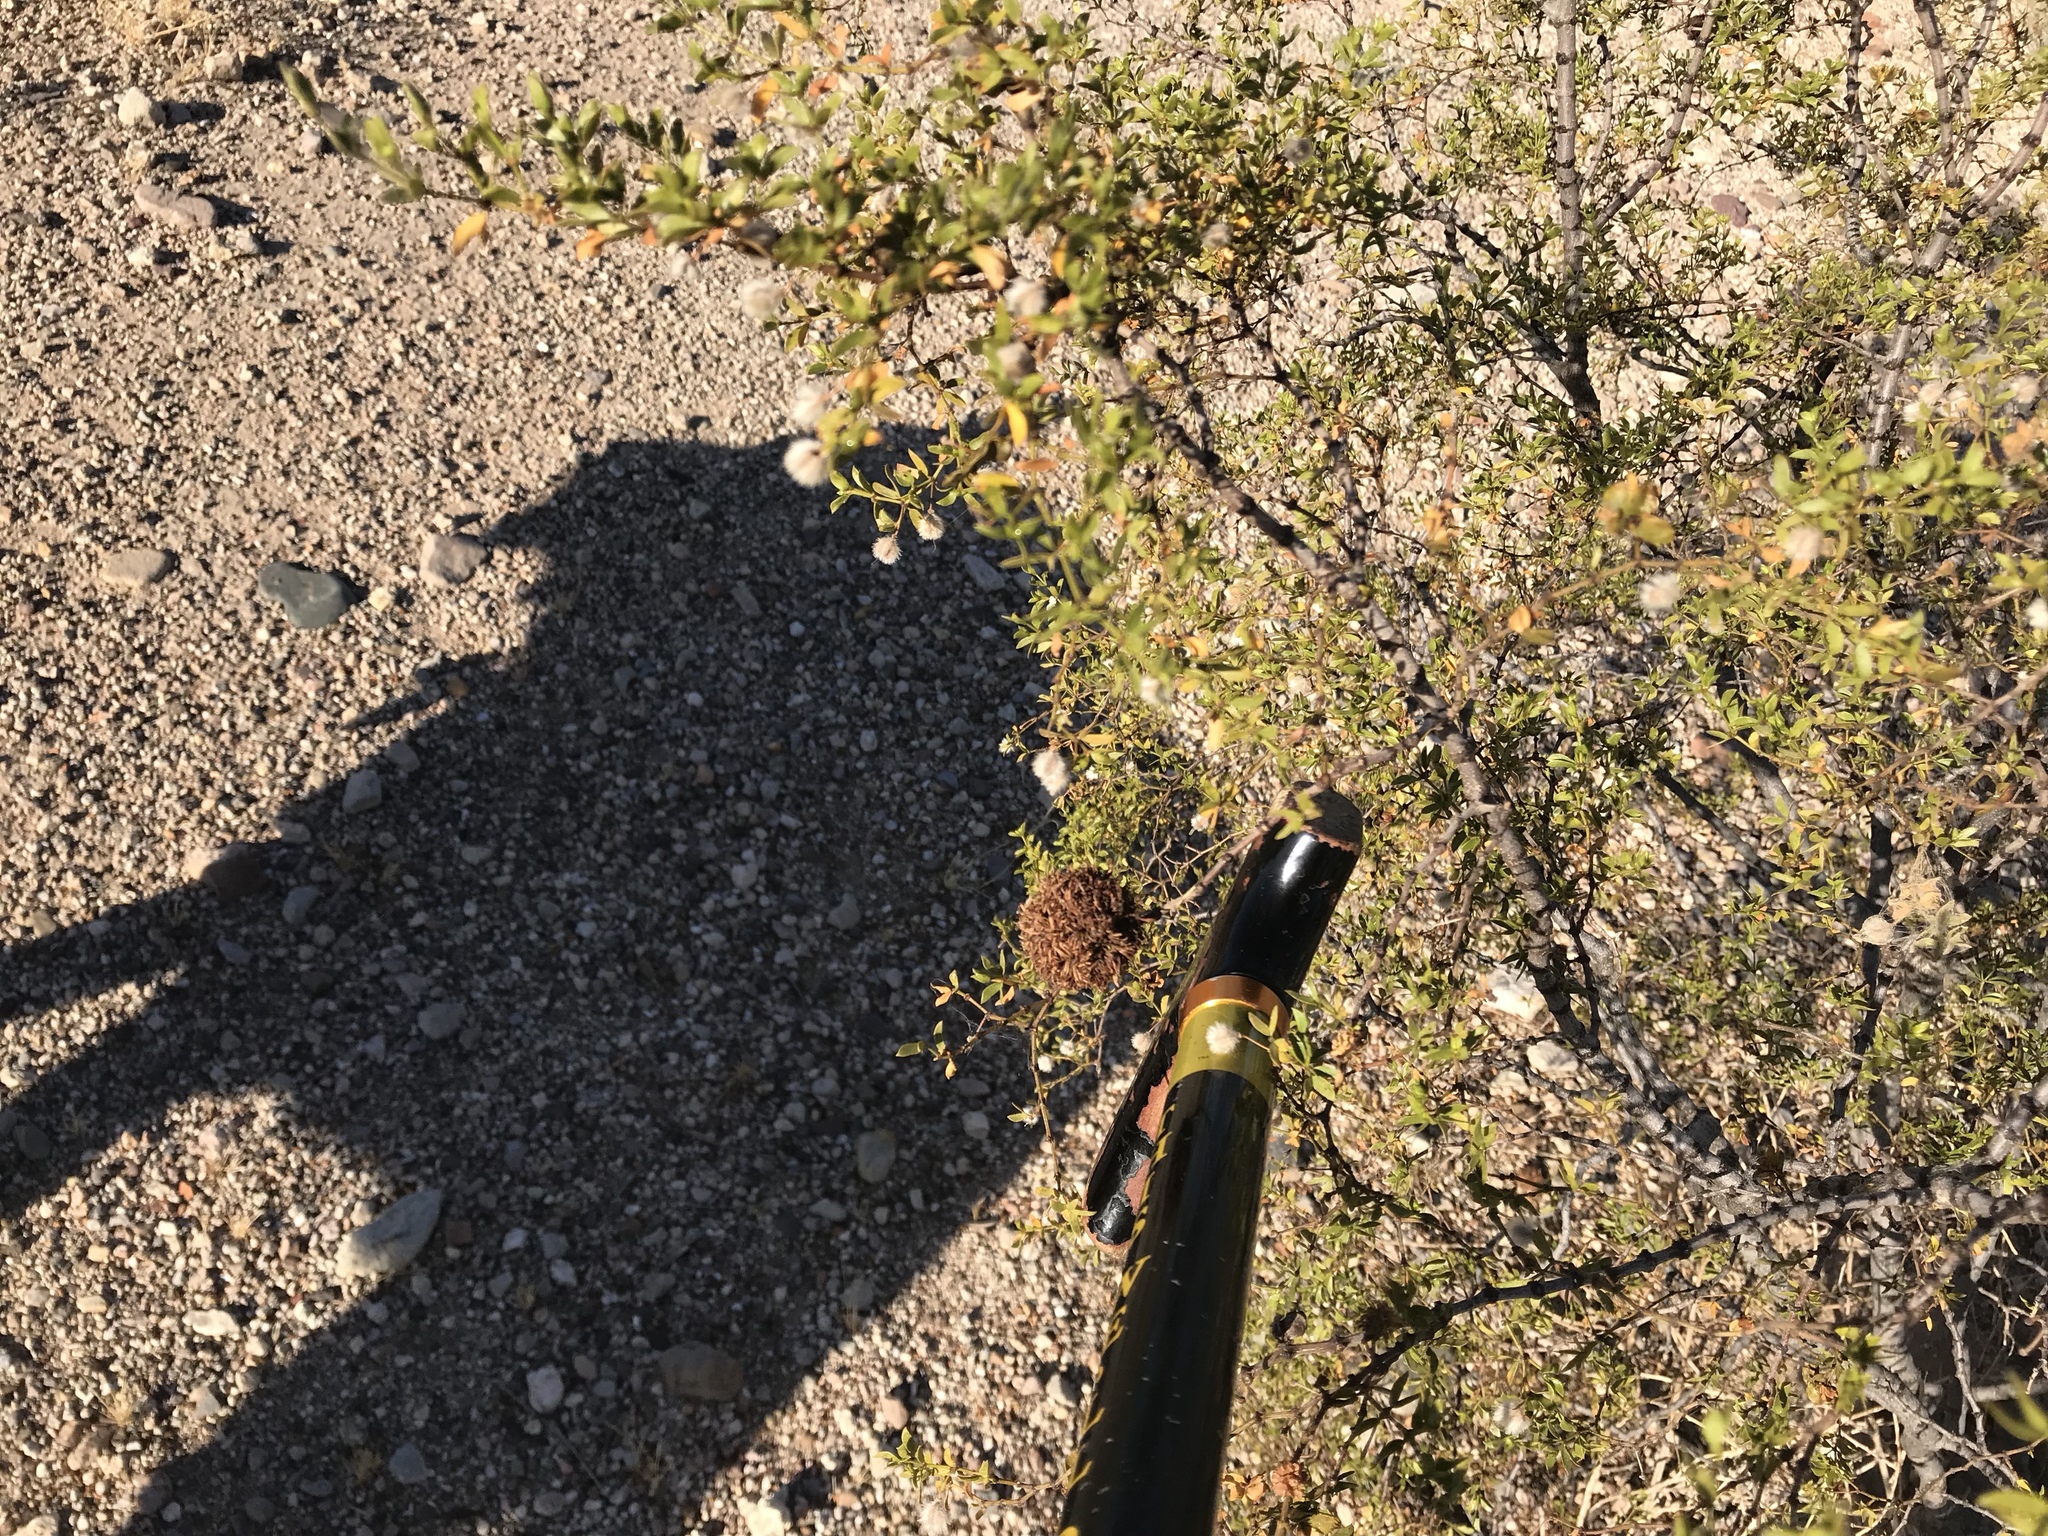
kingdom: Animalia
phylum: Arthropoda
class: Insecta
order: Diptera
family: Cecidomyiidae
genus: Asphondylia
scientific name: Asphondylia auripila
